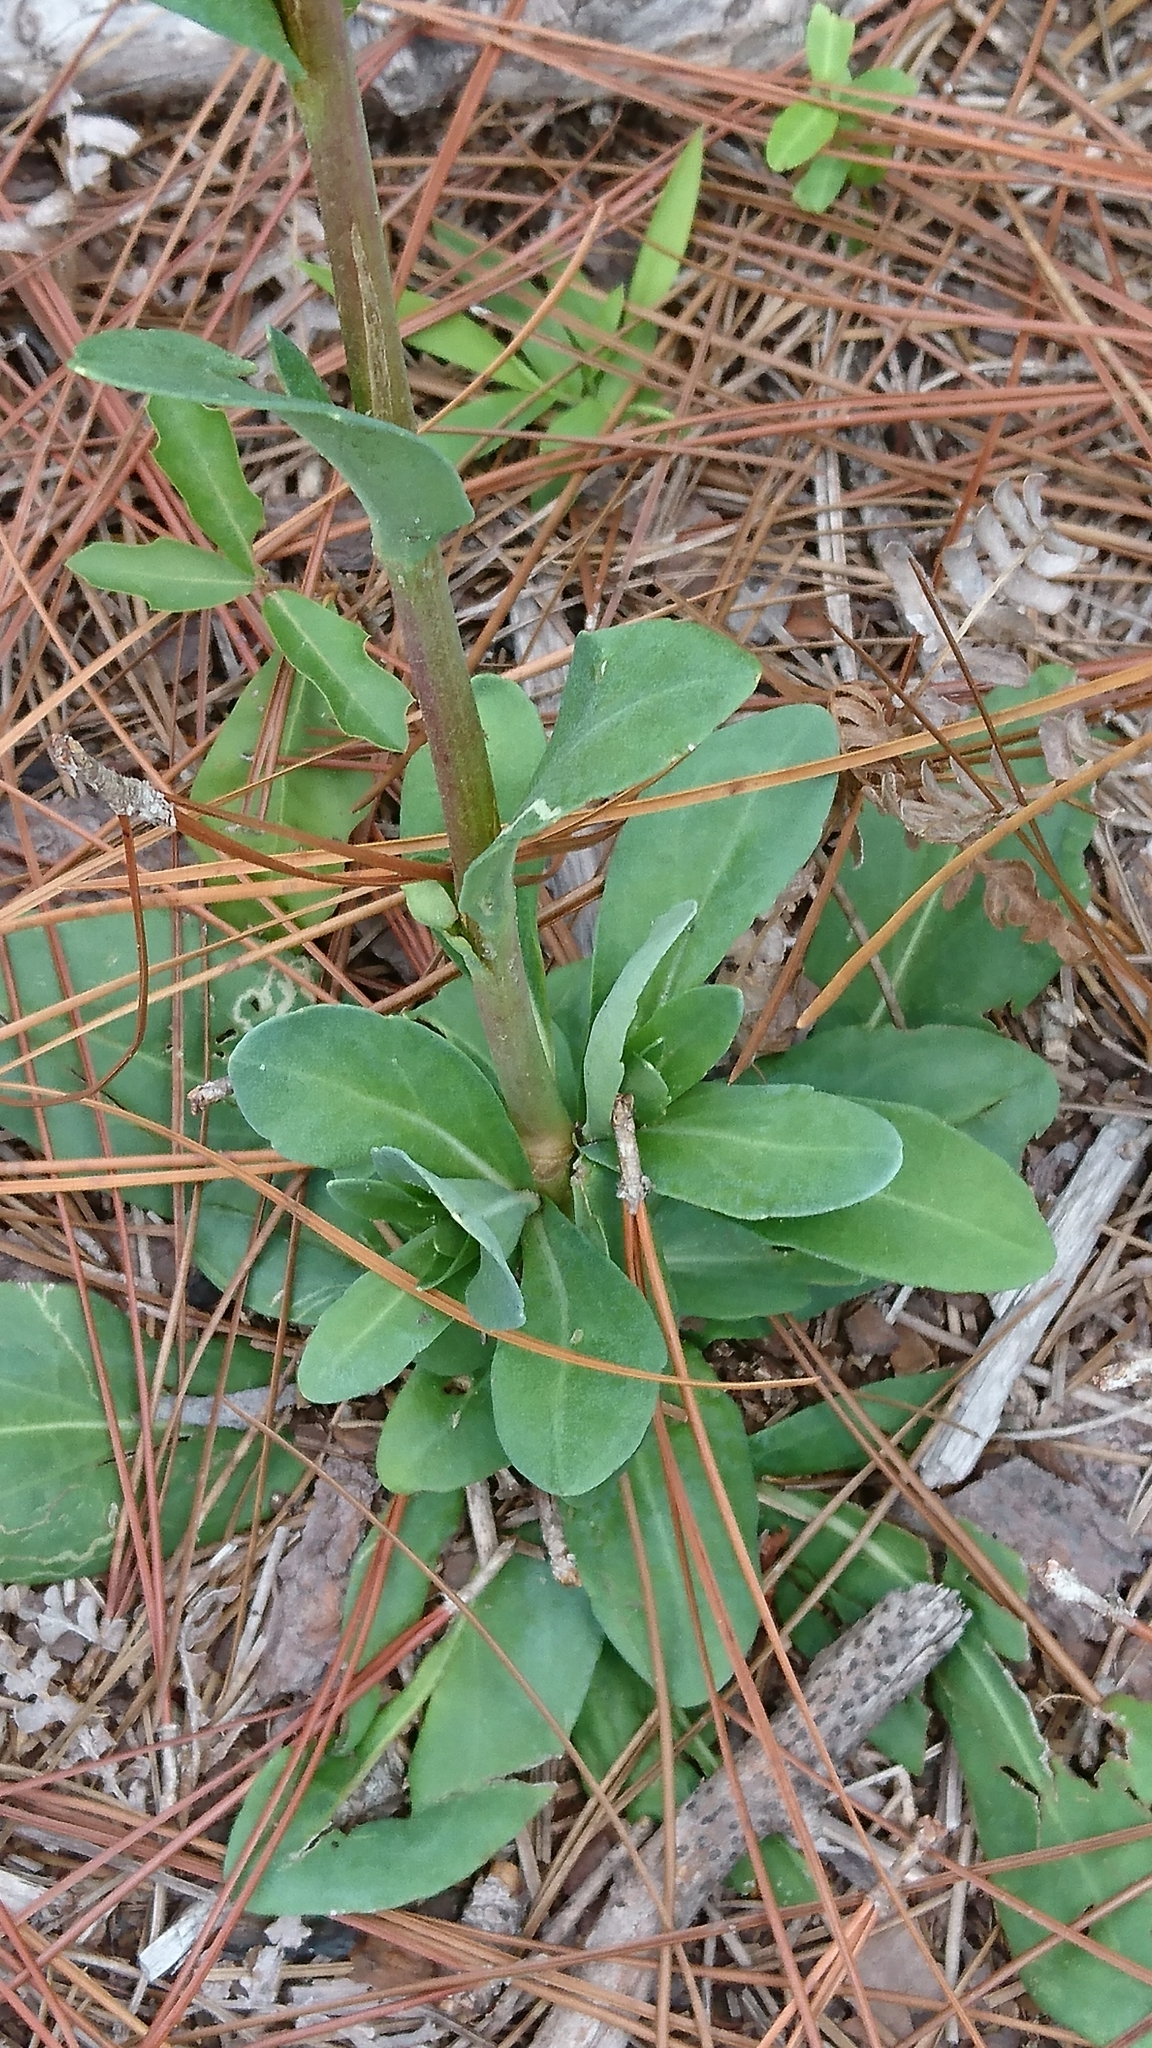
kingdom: Plantae
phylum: Tracheophyta
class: Magnoliopsida
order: Asterales
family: Asteraceae
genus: Carphephorus
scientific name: Carphephorus odoratissimus
